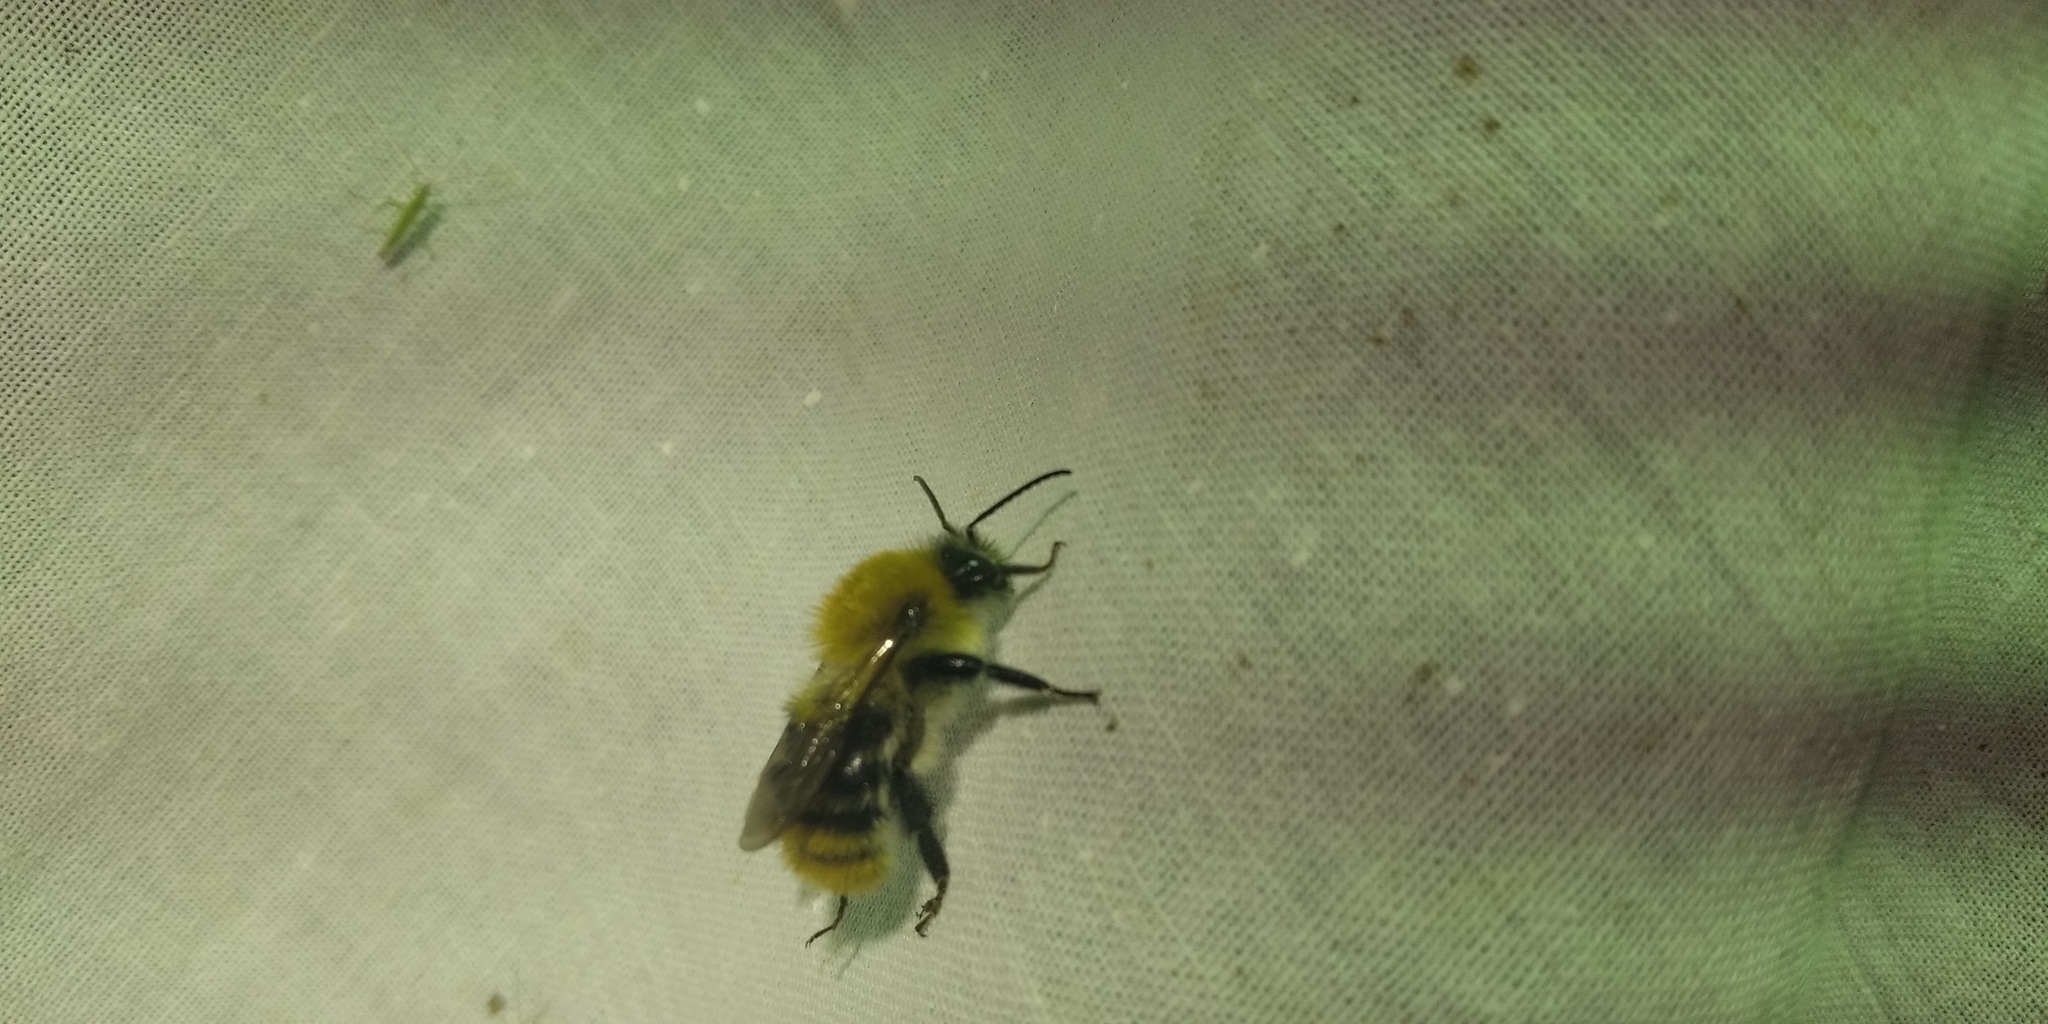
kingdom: Animalia
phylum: Arthropoda
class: Insecta
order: Hymenoptera
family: Apidae
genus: Bombus
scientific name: Bombus pascuorum
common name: Common carder bee
